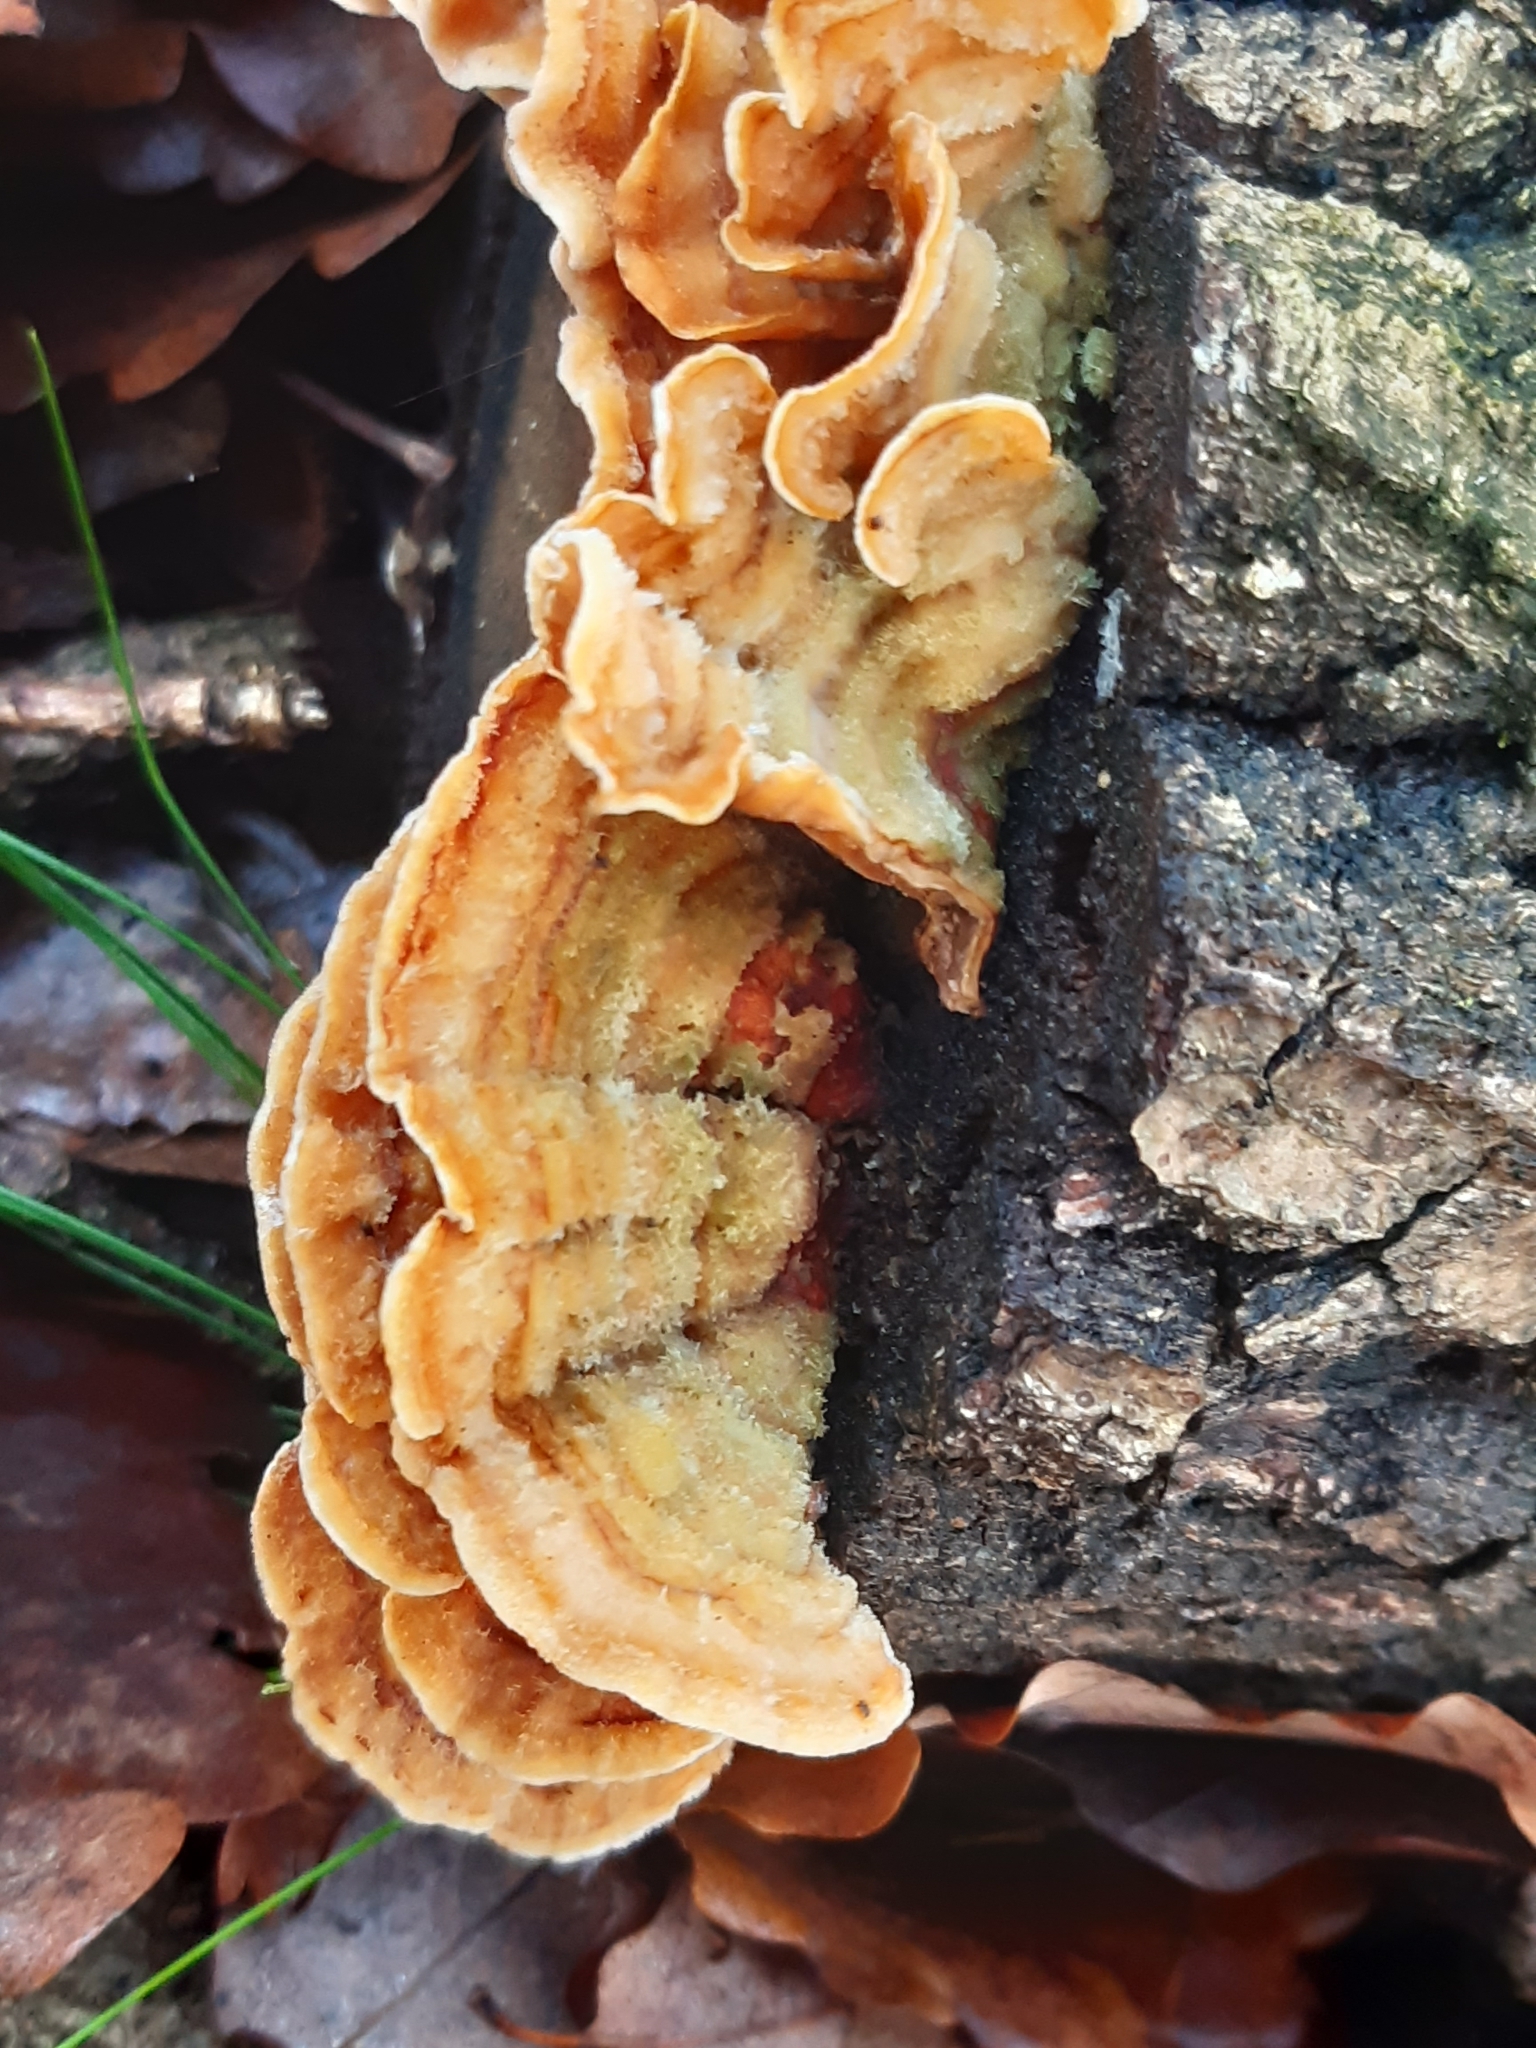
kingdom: Fungi
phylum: Basidiomycota
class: Agaricomycetes
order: Russulales
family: Stereaceae
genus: Stereum
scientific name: Stereum hirsutum
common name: Hairy curtain crust
